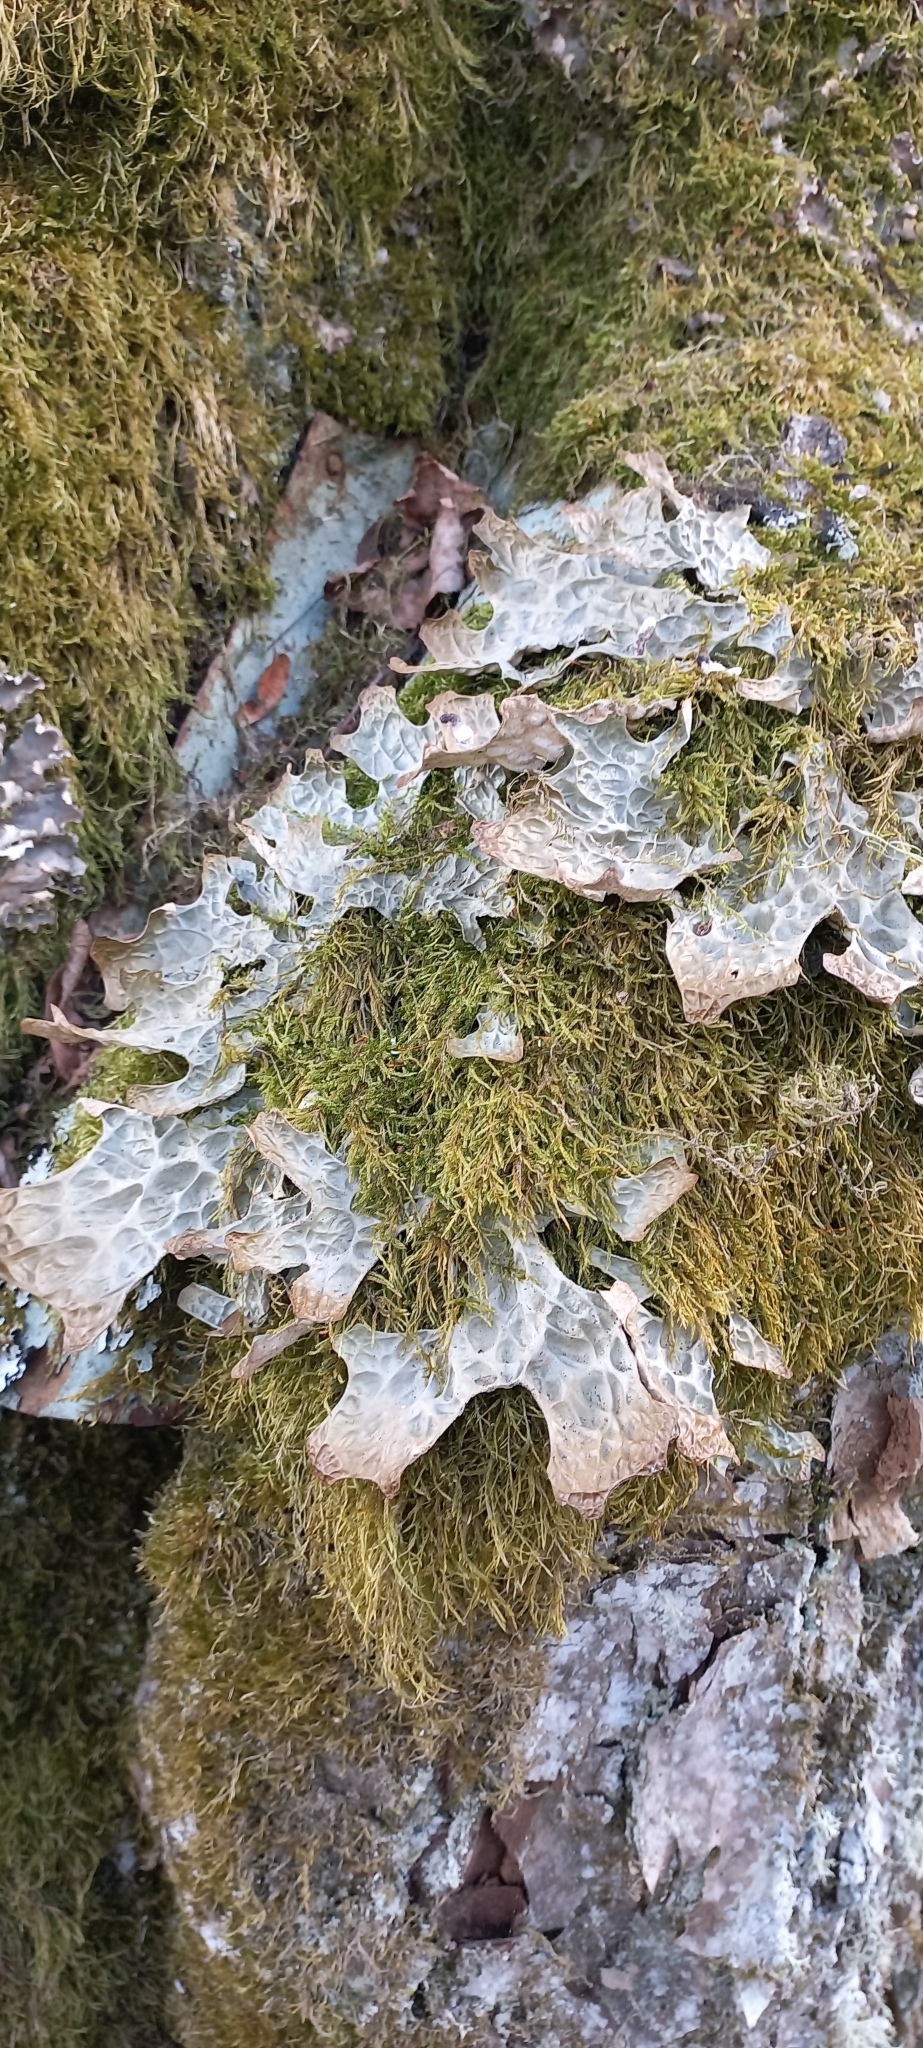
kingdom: Fungi
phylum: Ascomycota
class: Lecanoromycetes
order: Peltigerales
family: Lobariaceae
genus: Lobaria
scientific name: Lobaria pulmonaria
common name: Lungwort
